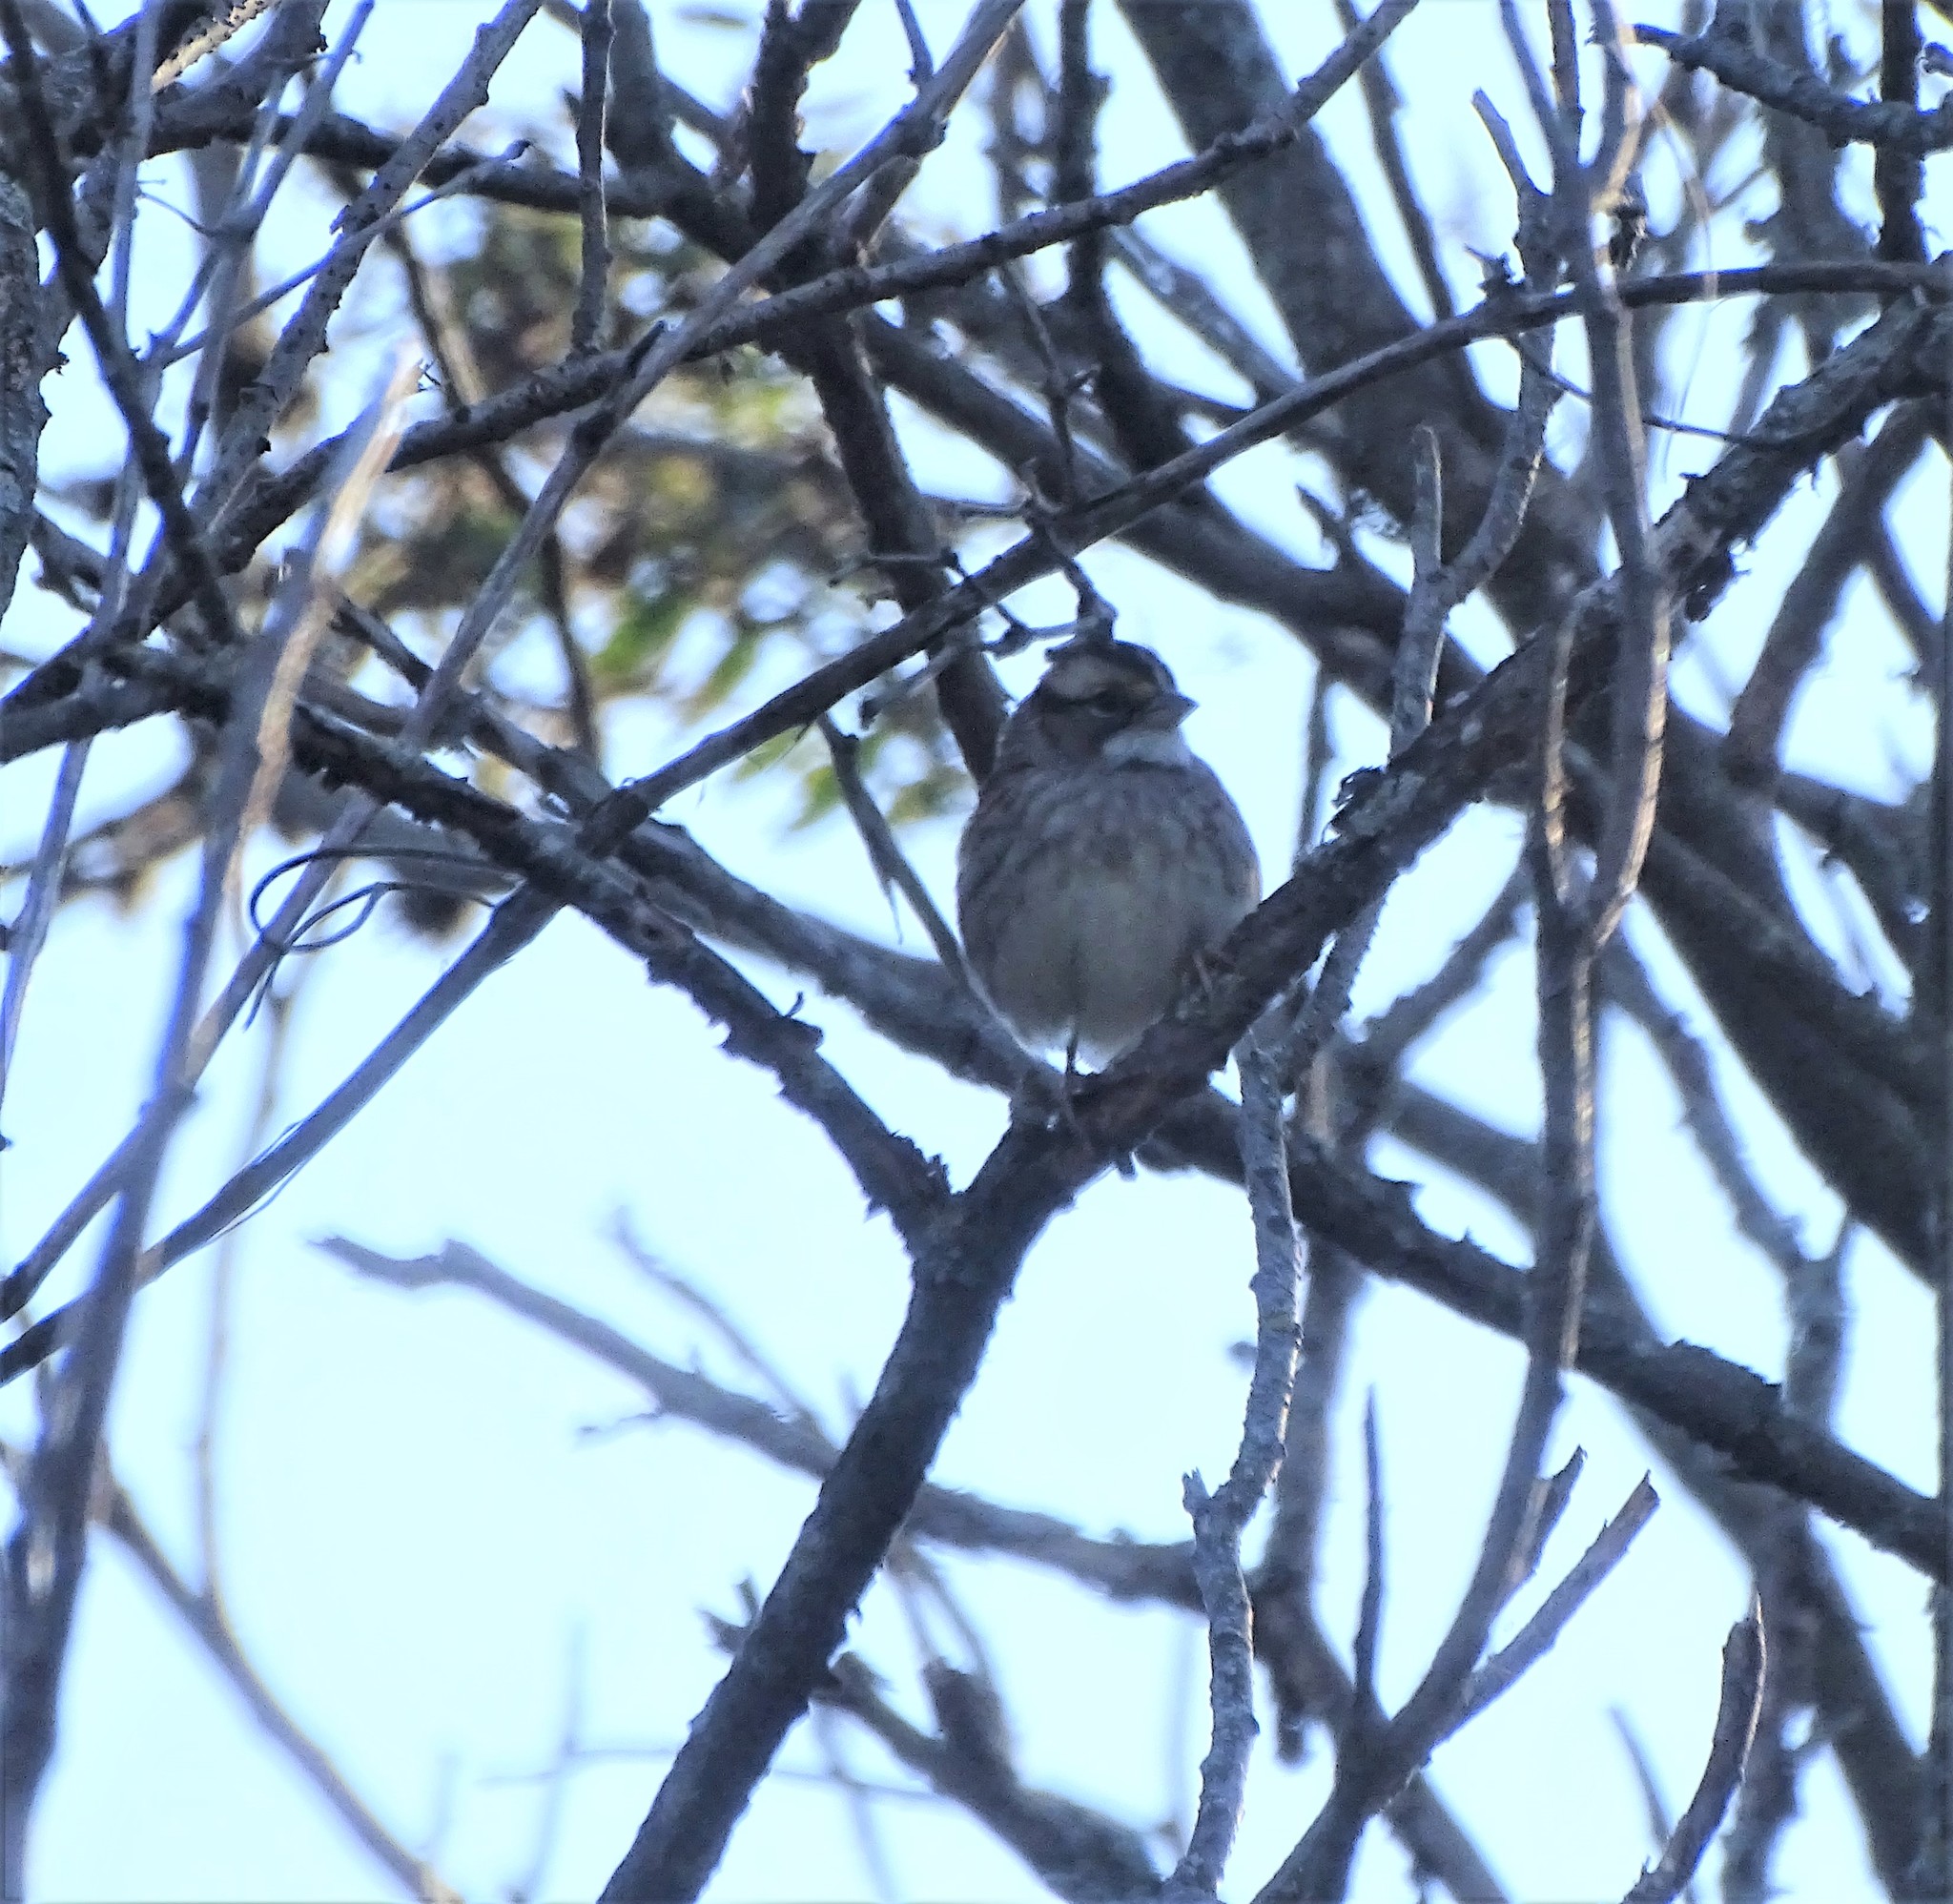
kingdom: Animalia
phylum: Chordata
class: Aves
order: Passeriformes
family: Passerellidae
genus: Zonotrichia
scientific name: Zonotrichia albicollis
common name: White-throated sparrow
